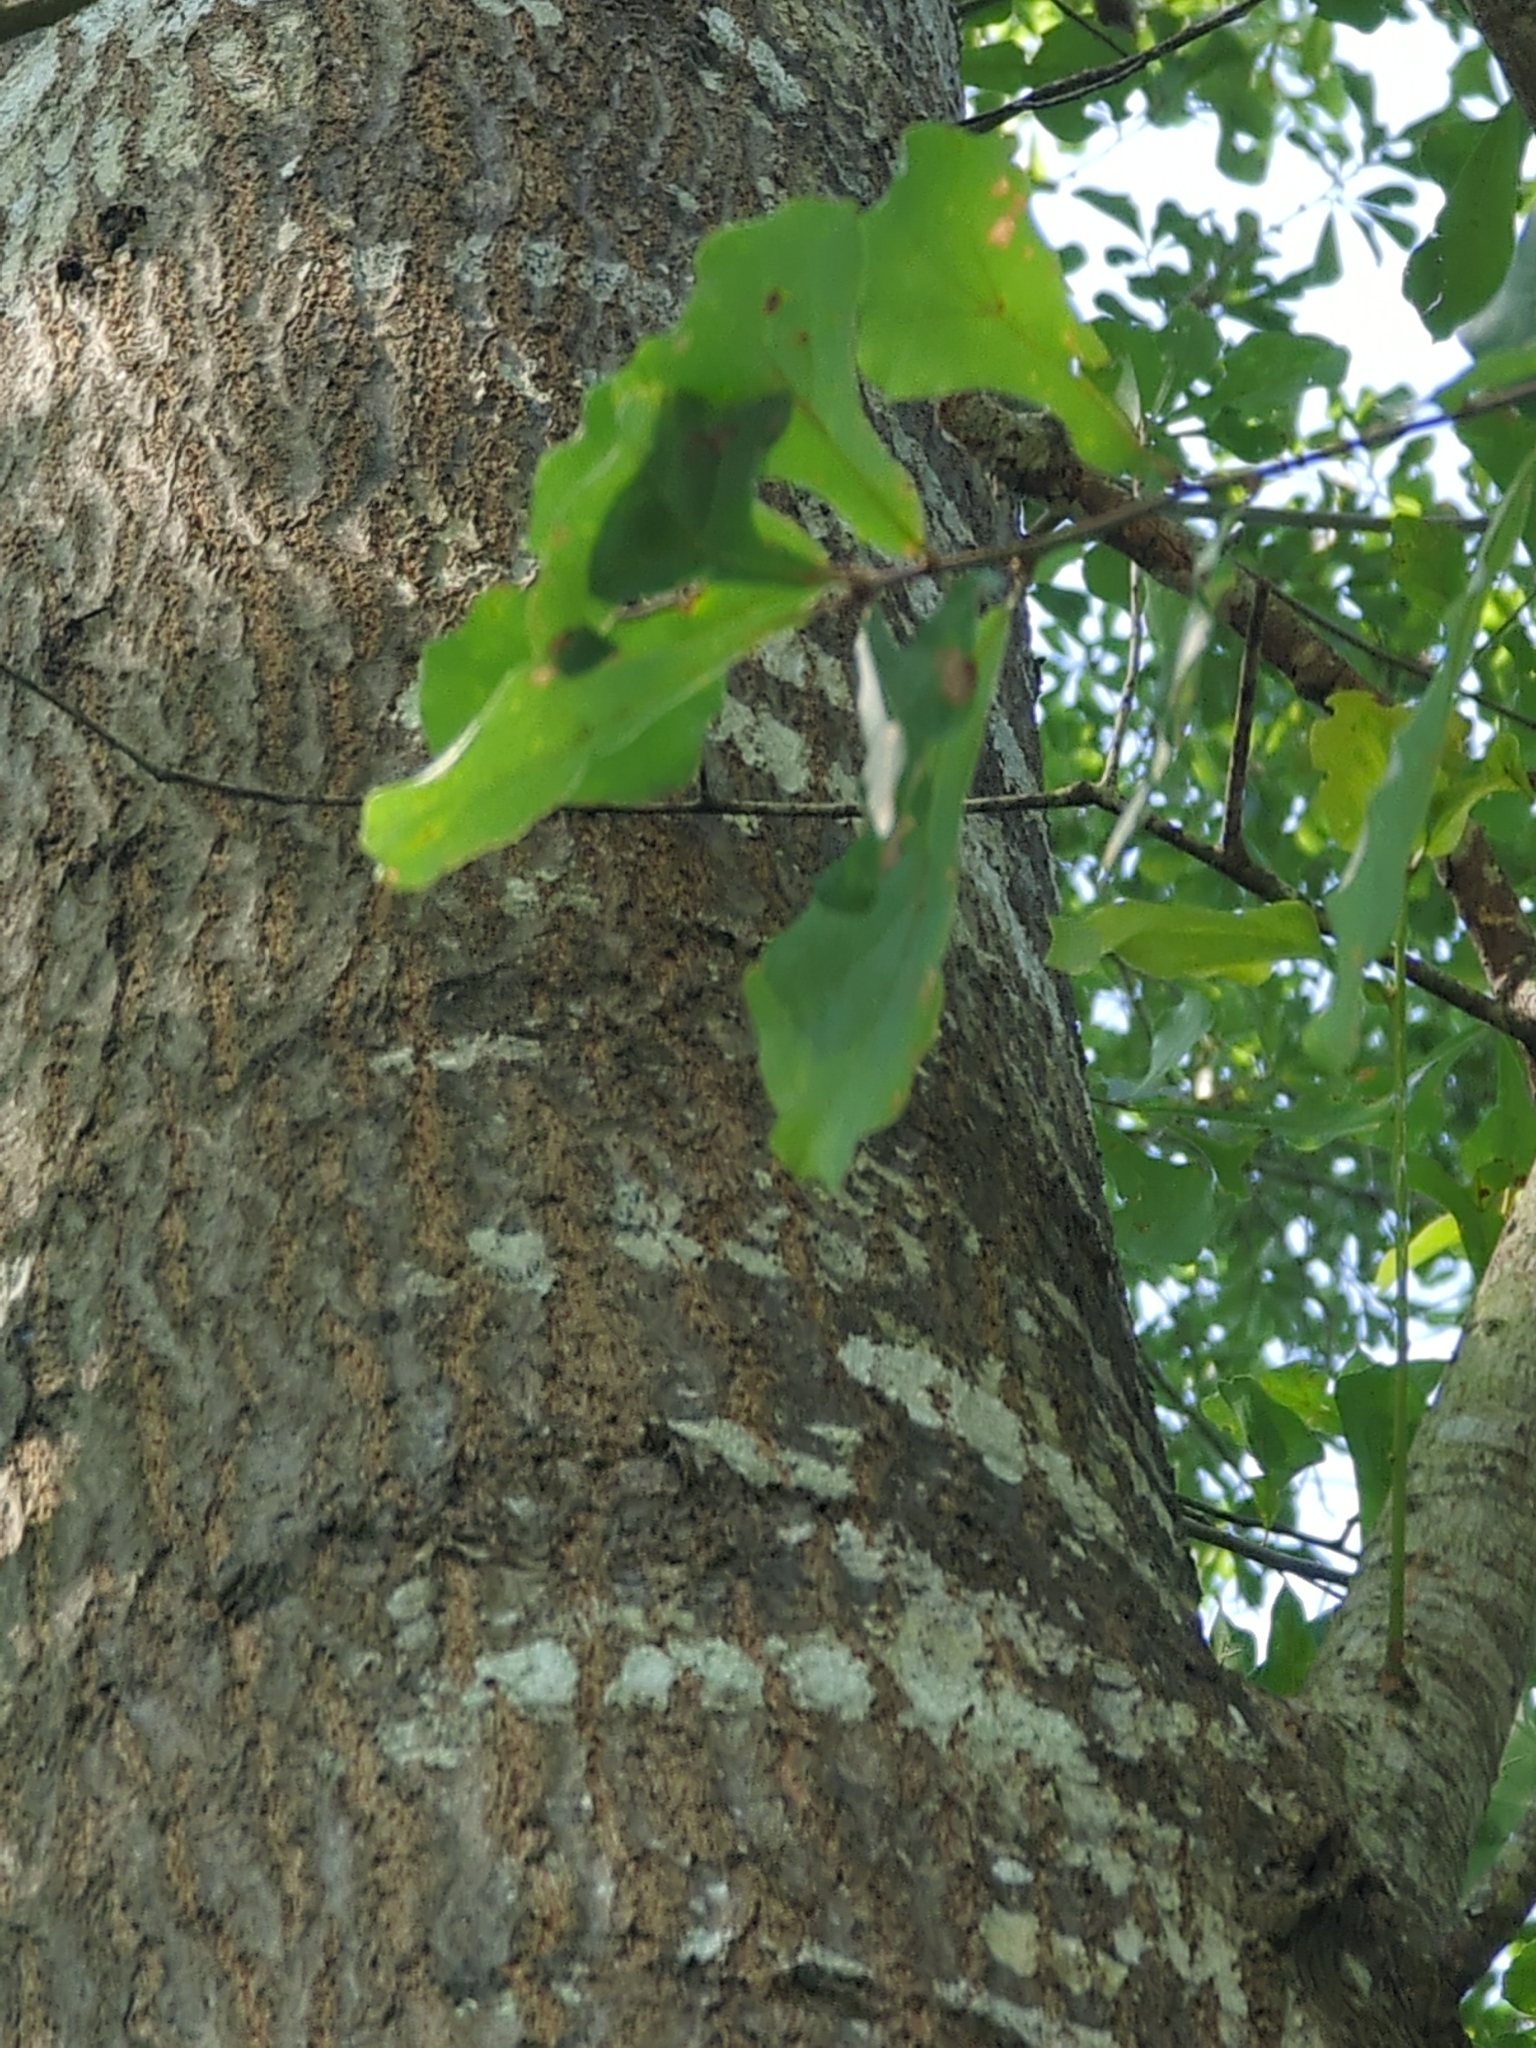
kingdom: Plantae
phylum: Tracheophyta
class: Magnoliopsida
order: Fagales
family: Fagaceae
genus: Quercus
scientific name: Quercus nigra
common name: Water oak
